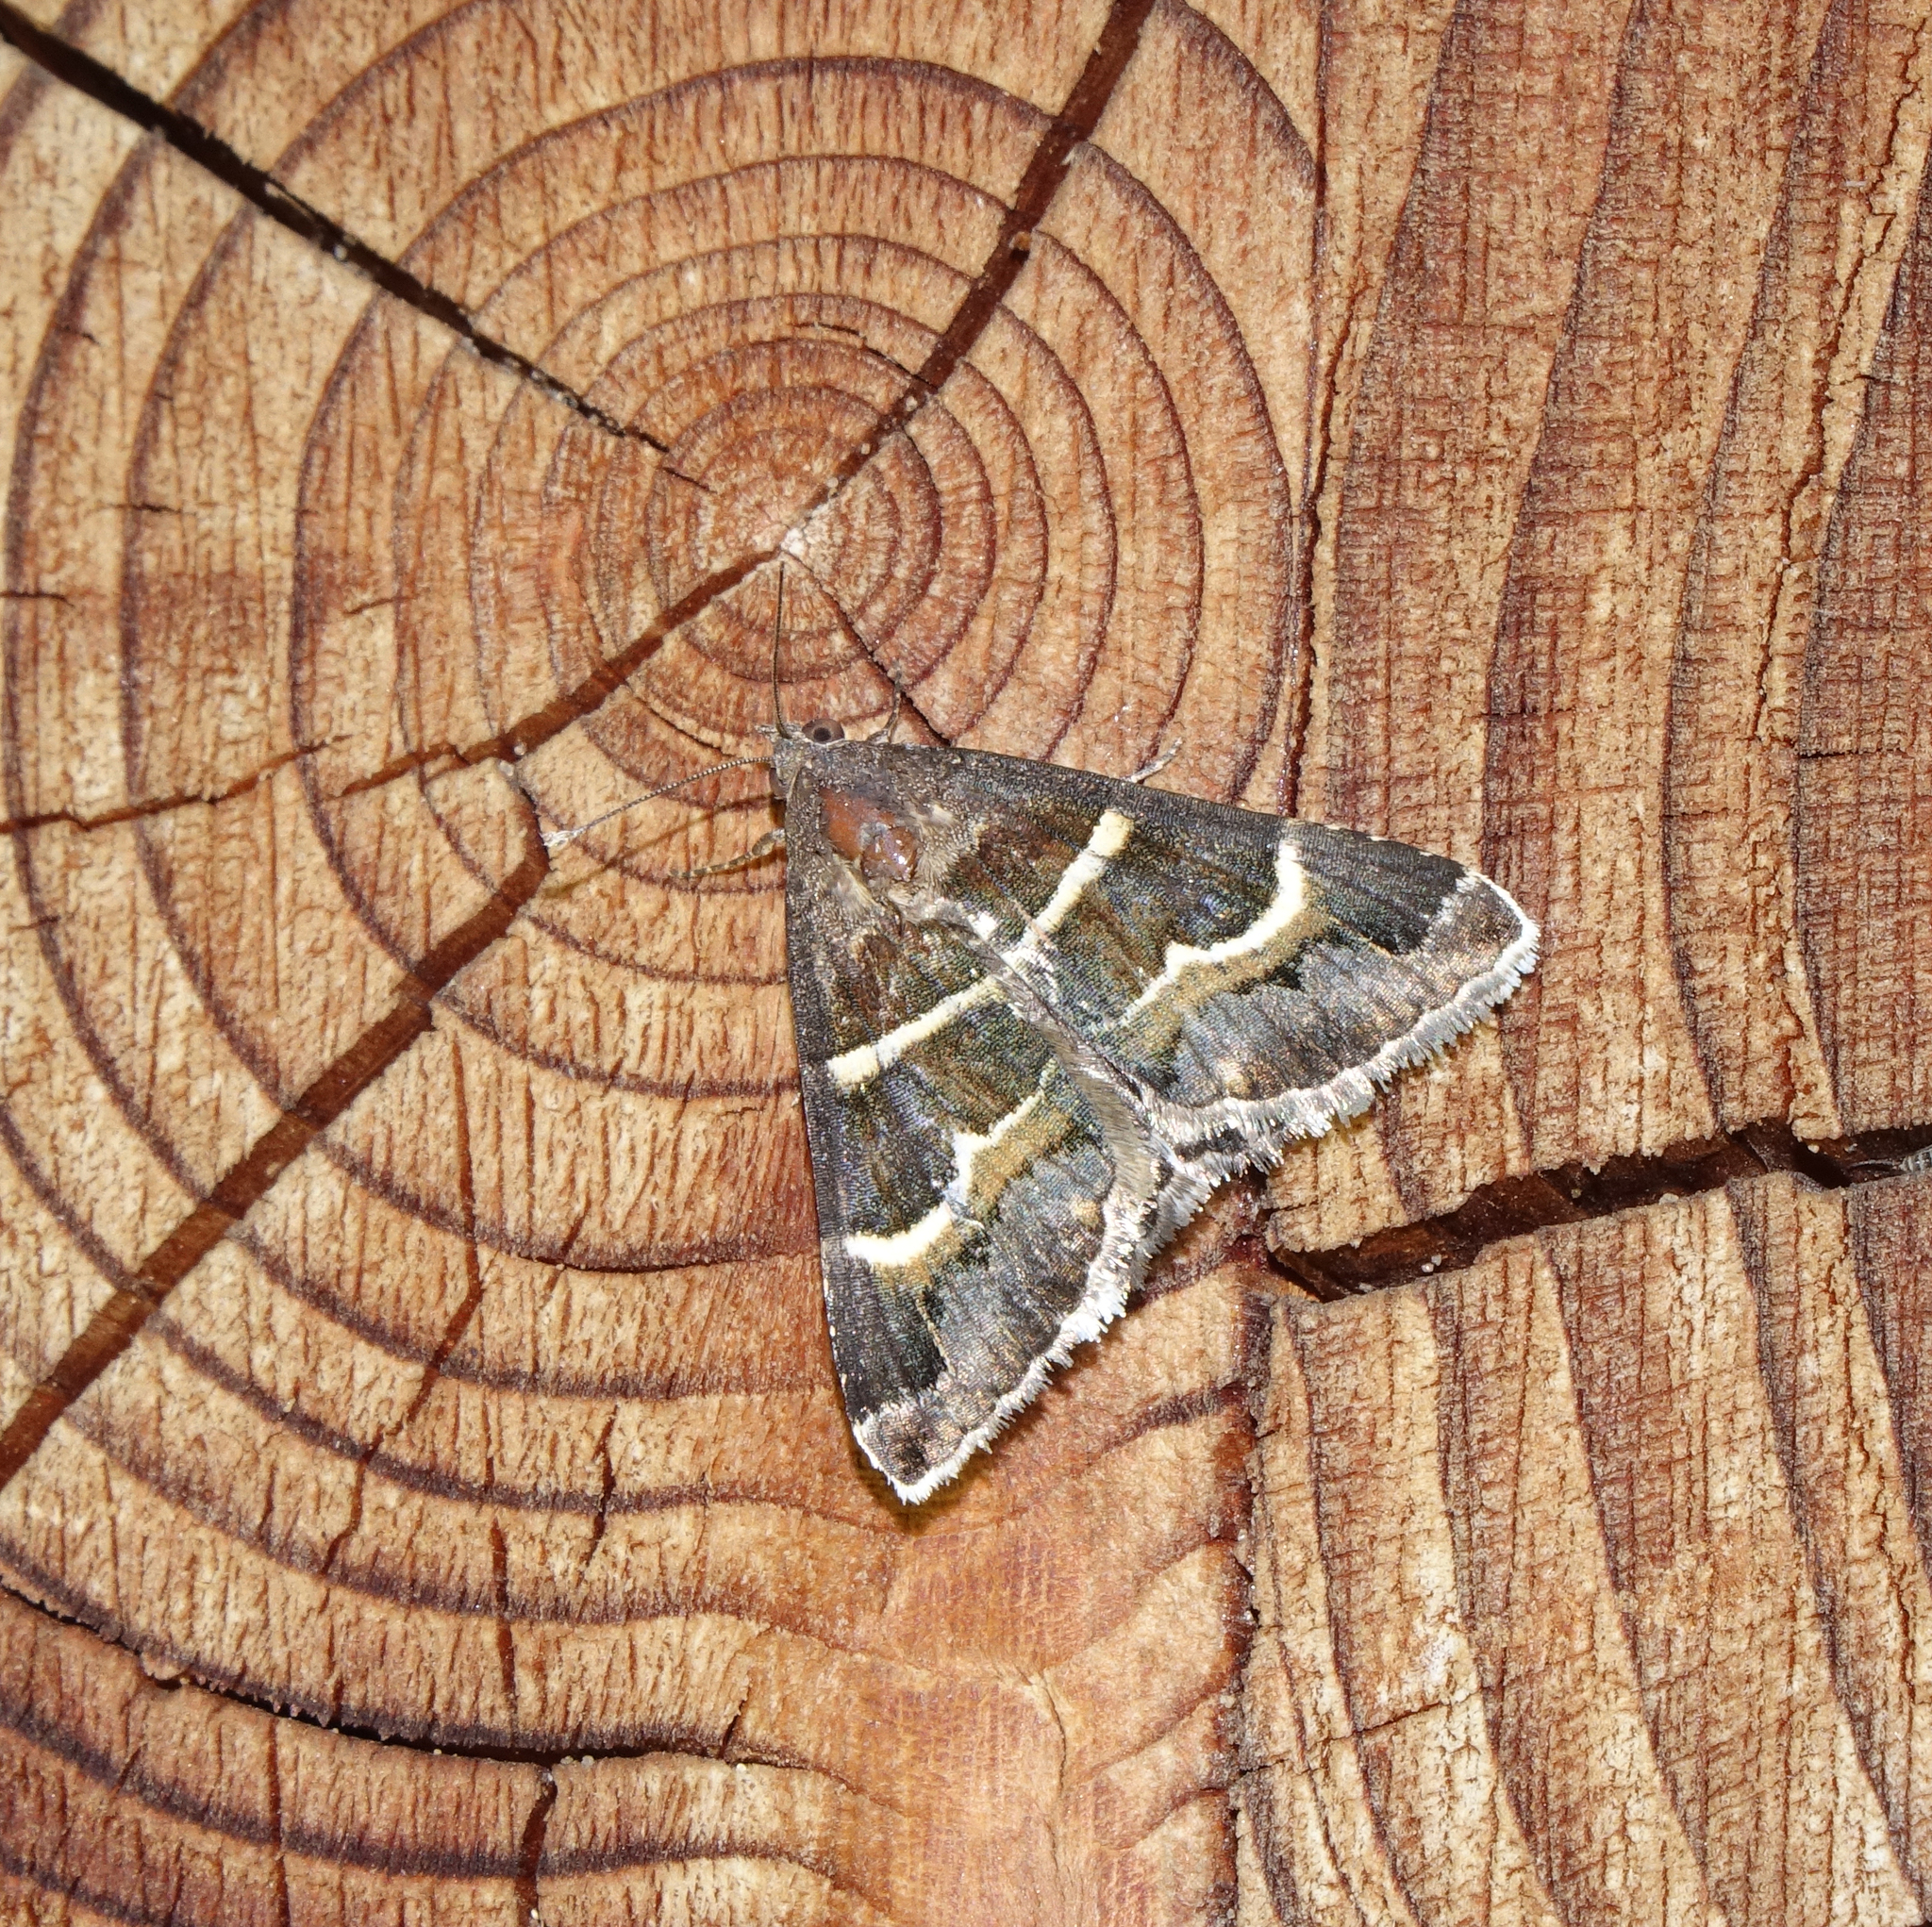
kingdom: Animalia
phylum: Arthropoda
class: Insecta
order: Lepidoptera
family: Erebidae
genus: Grammodes
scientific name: Grammodes stolida
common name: Geometrician
